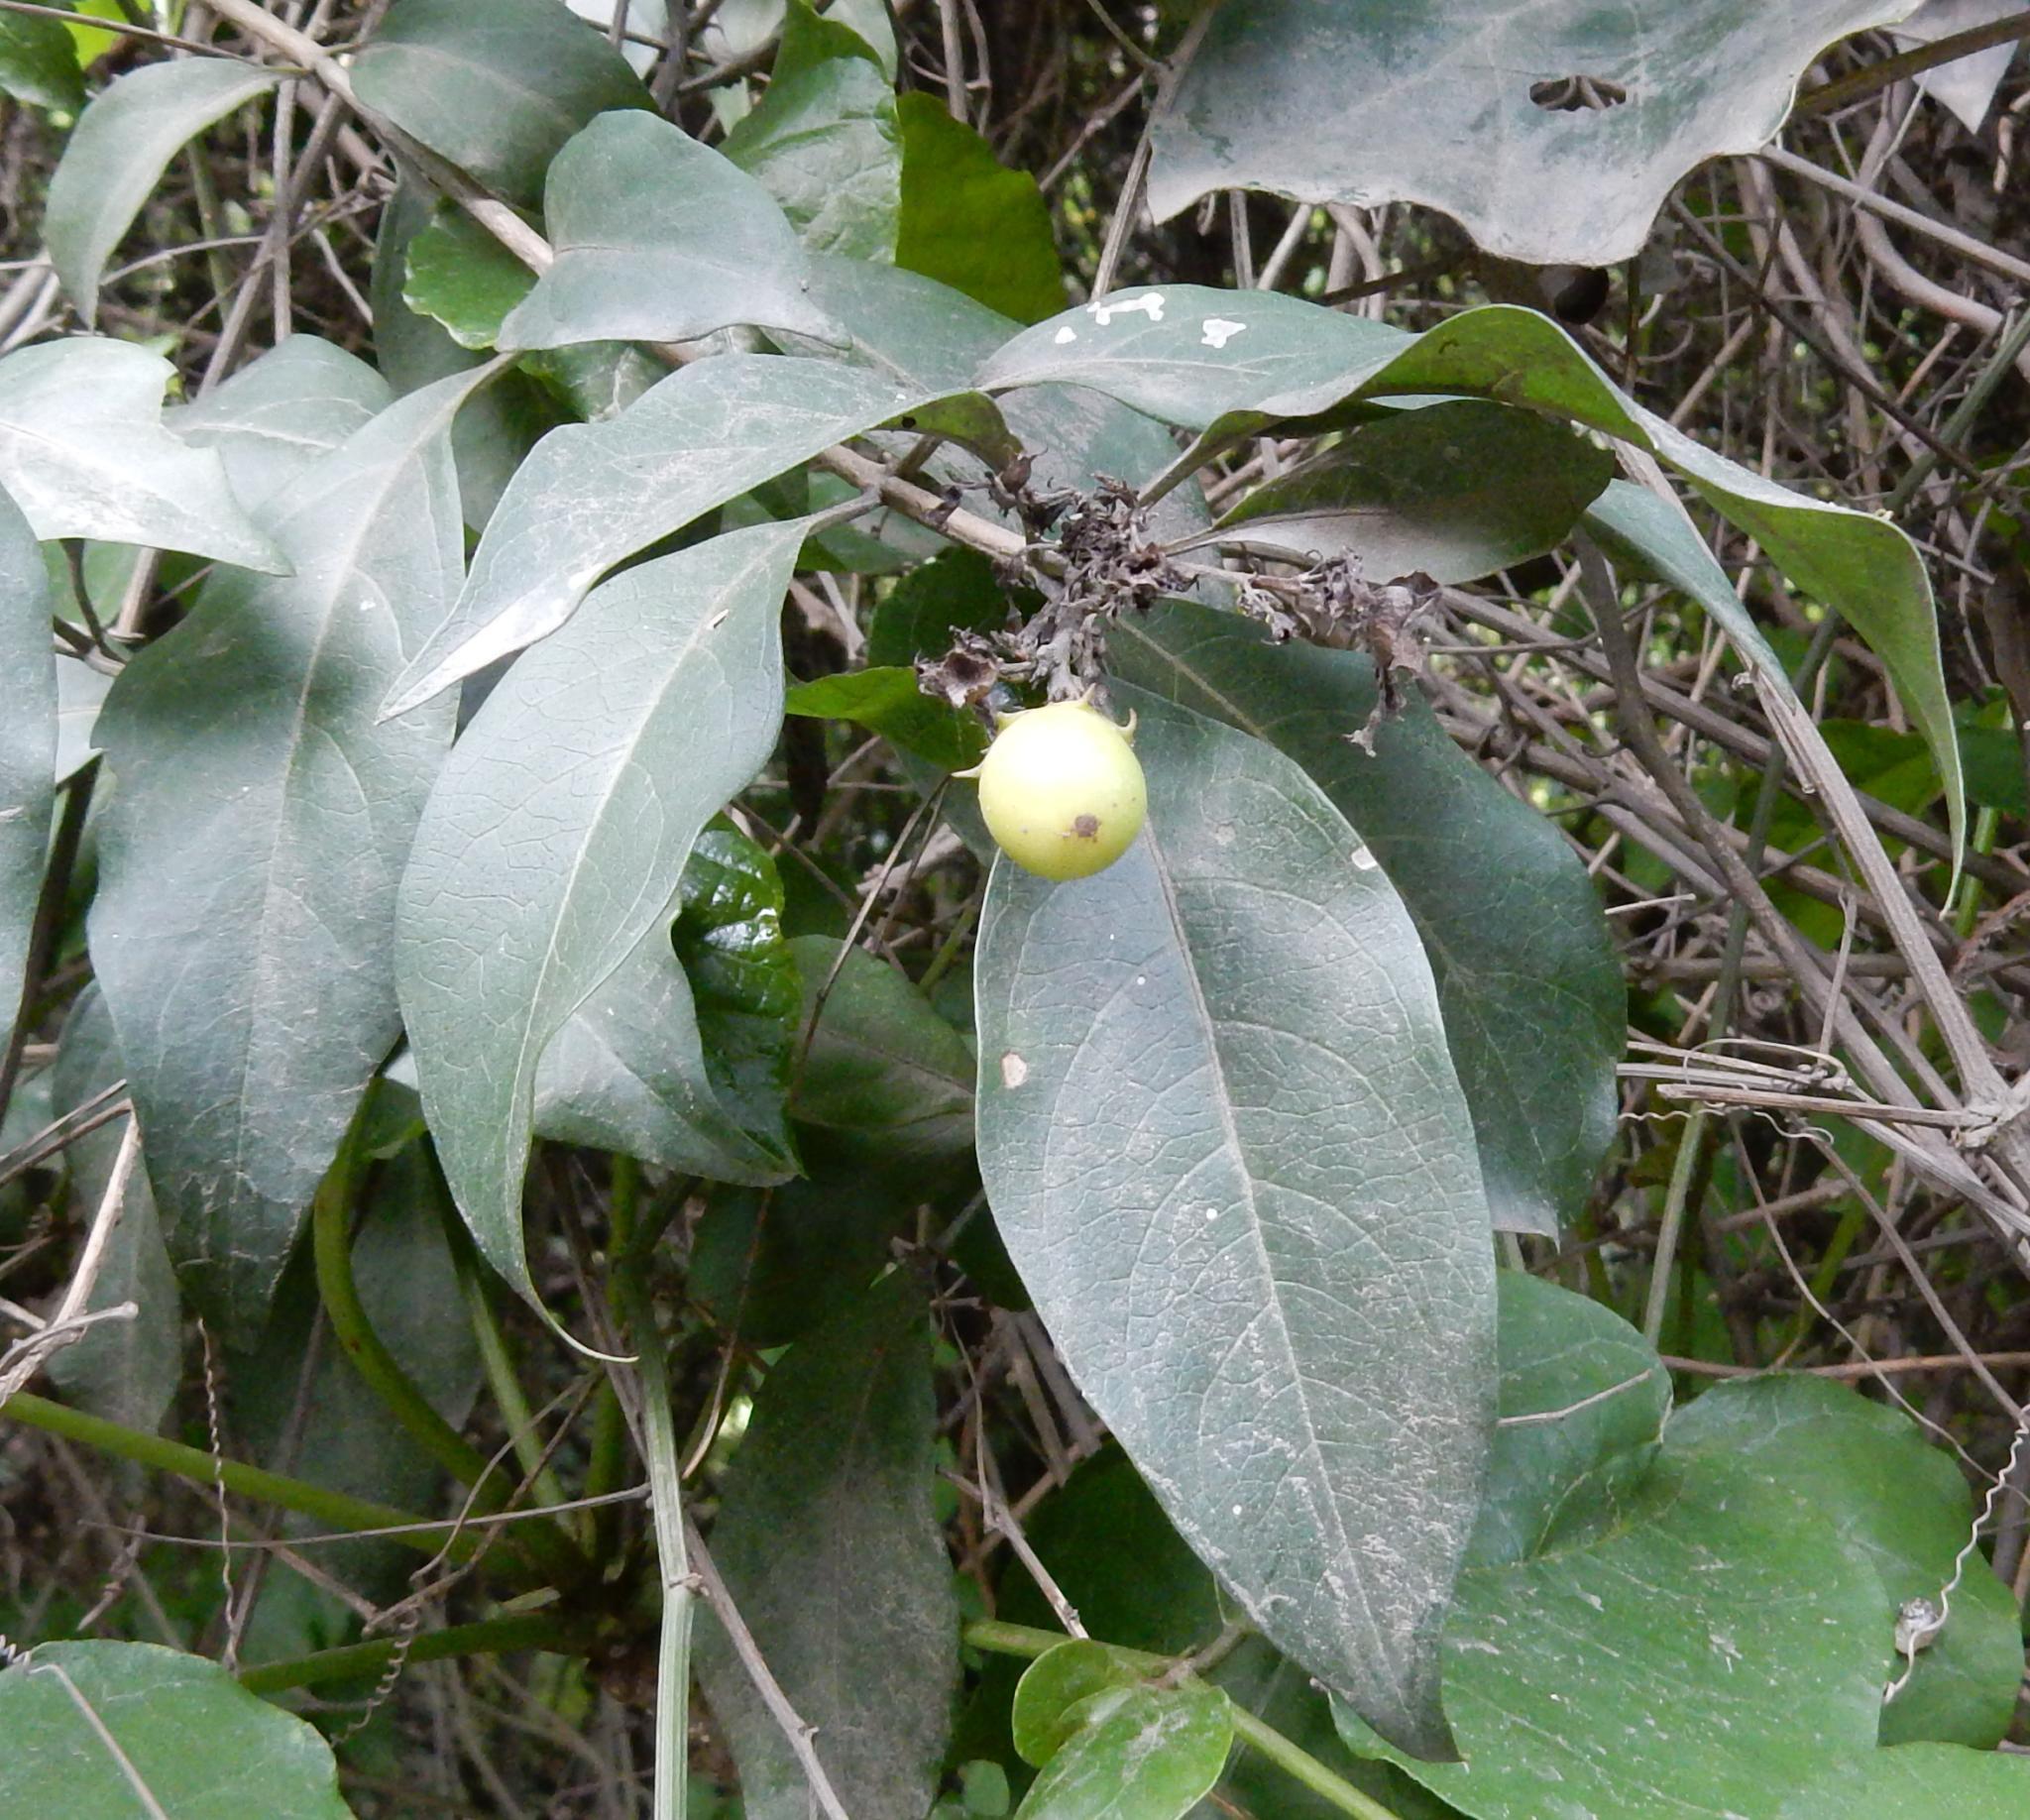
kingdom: Plantae
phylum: Tracheophyta
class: Magnoliopsida
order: Lamiales
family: Lamiaceae
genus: Volkameria
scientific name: Volkameria glabra
